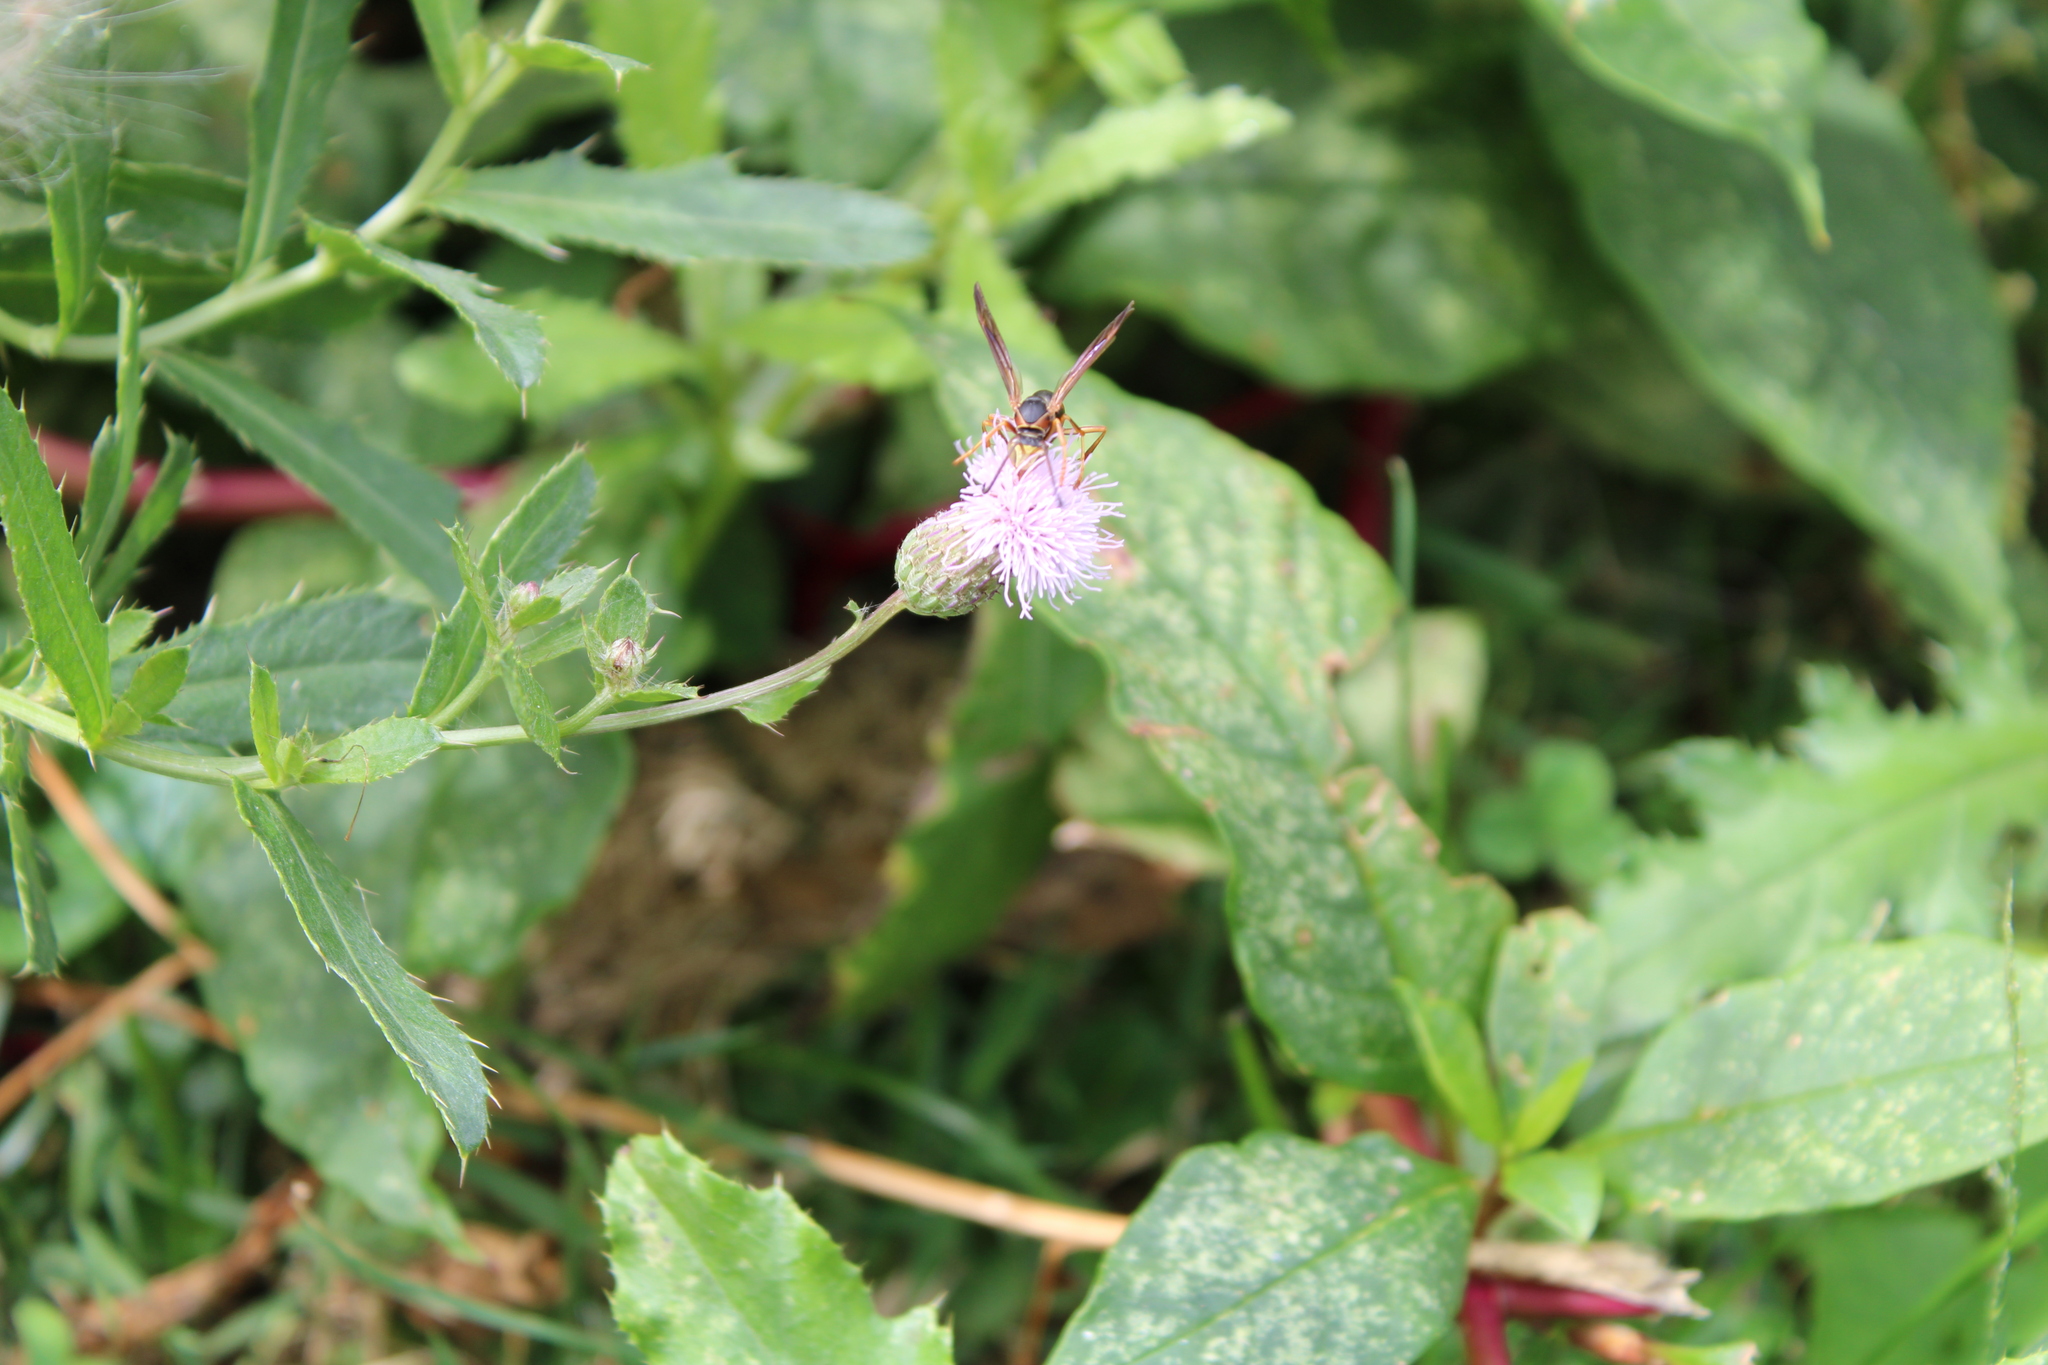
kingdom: Animalia
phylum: Arthropoda
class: Insecta
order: Hymenoptera
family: Eumenidae
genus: Polistes
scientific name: Polistes fuscatus
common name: Dark paper wasp
